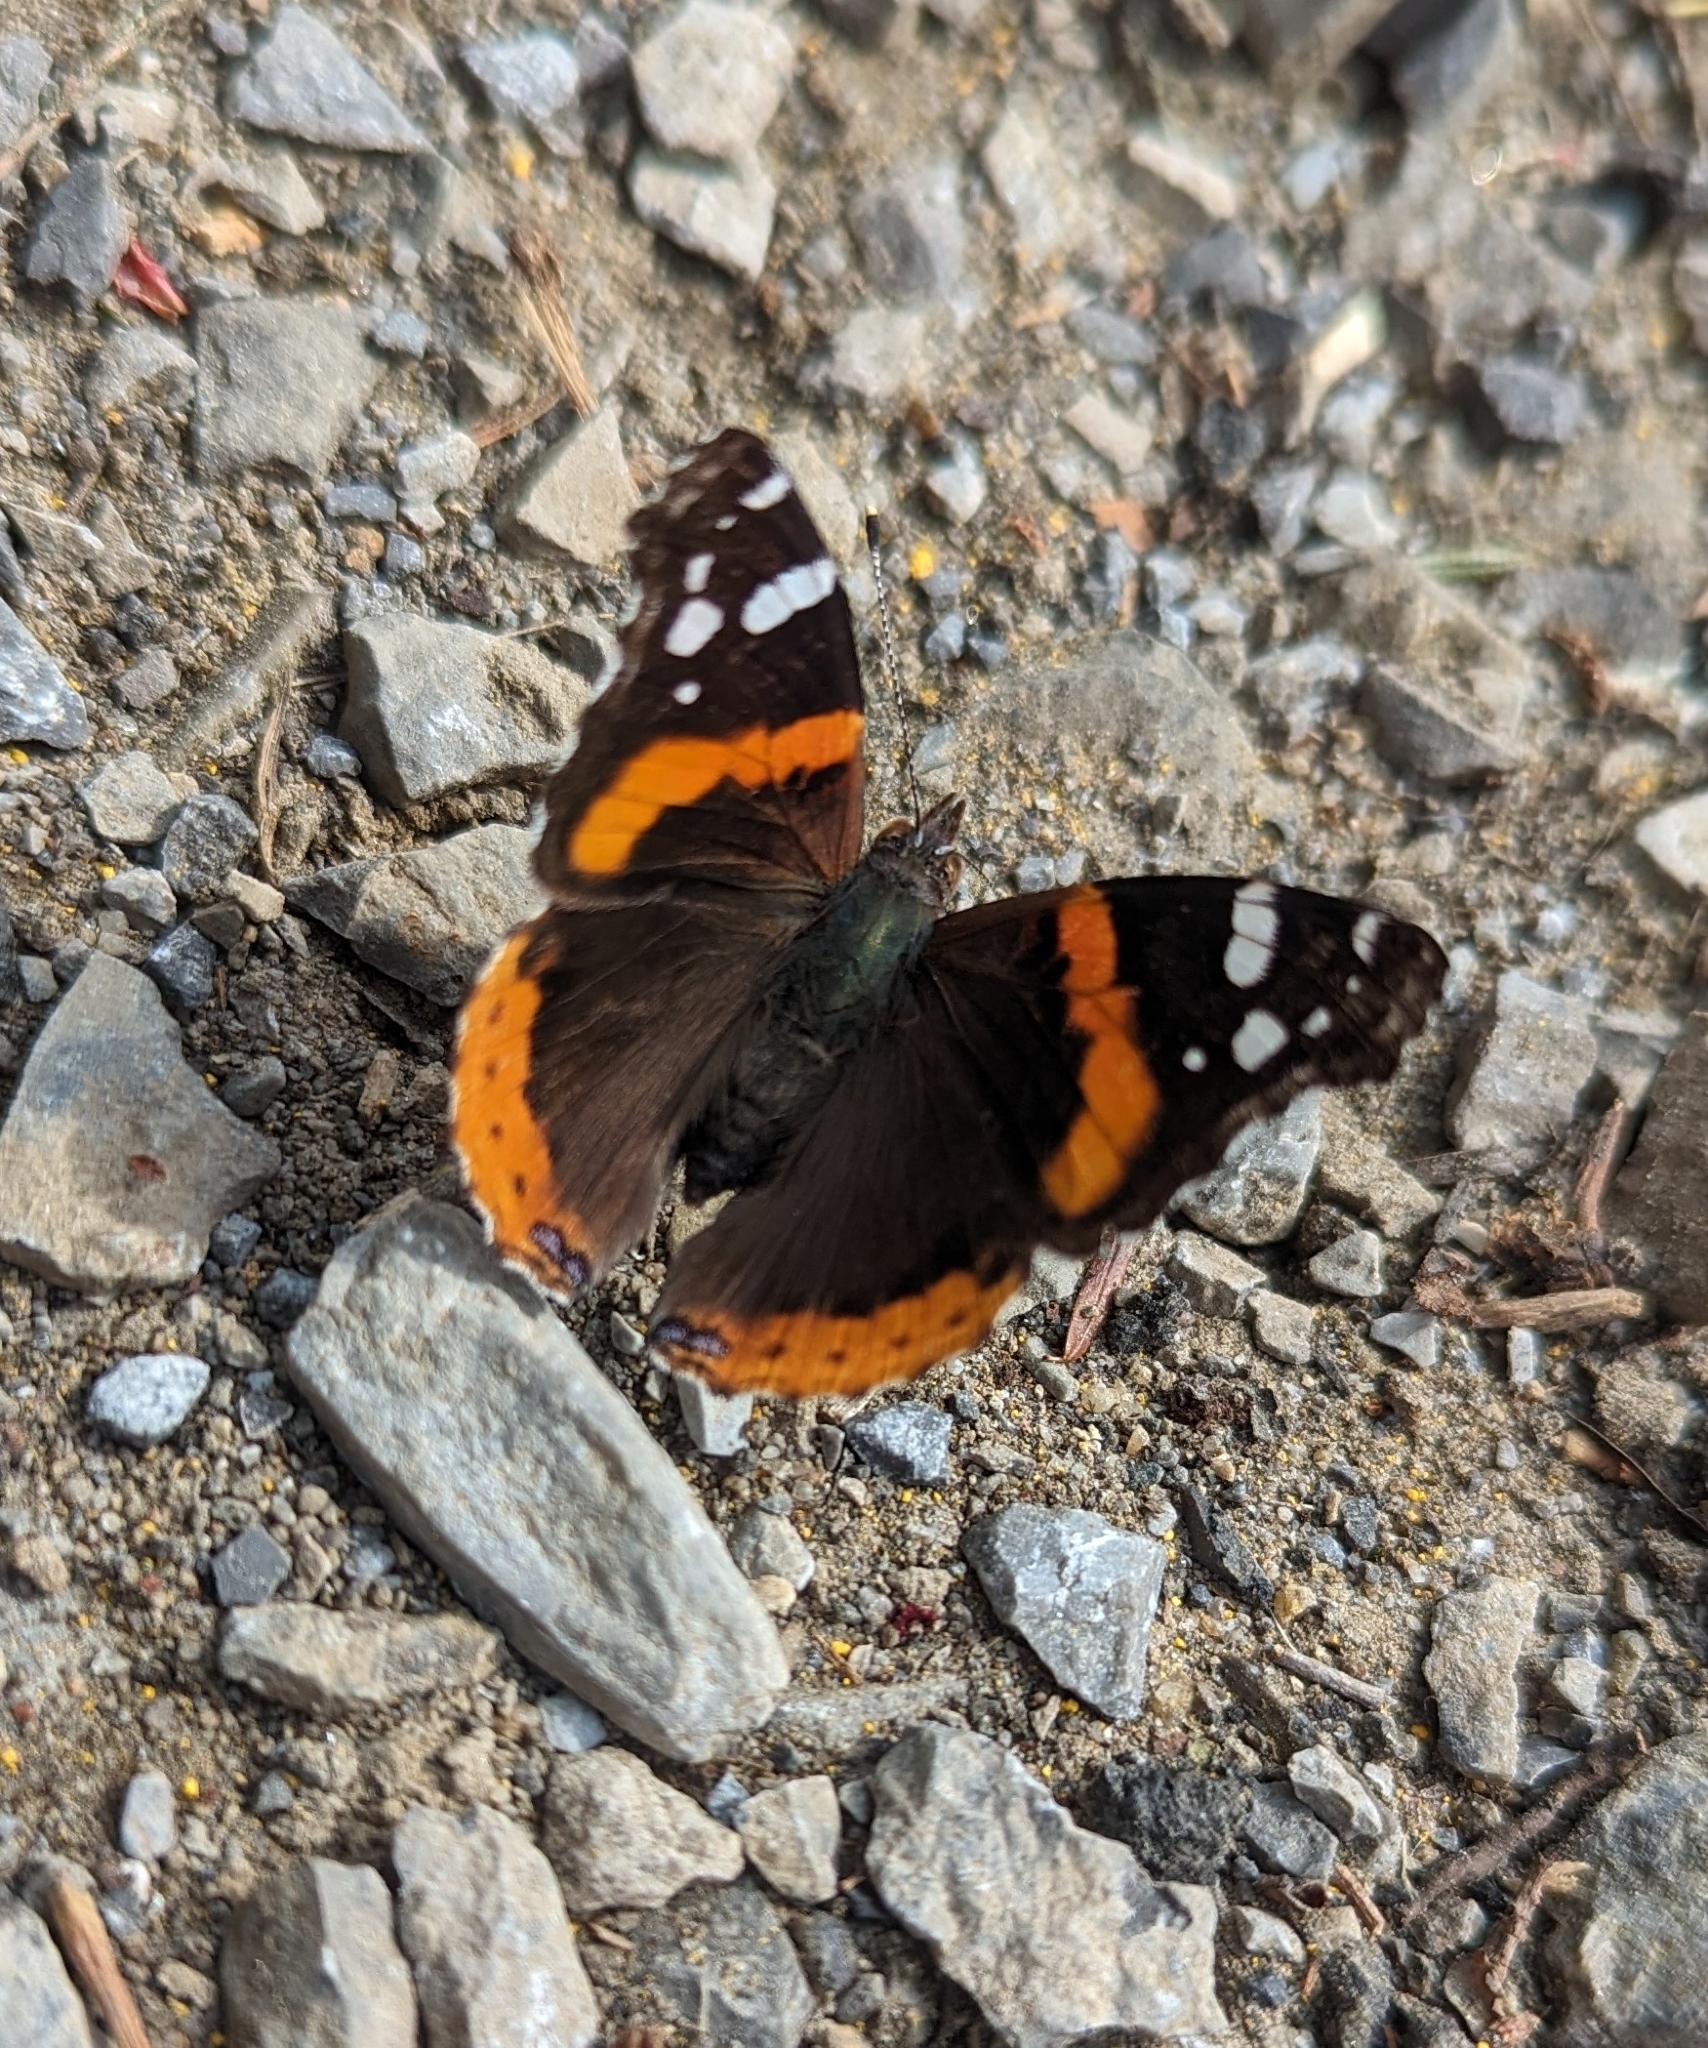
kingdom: Animalia
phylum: Arthropoda
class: Insecta
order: Lepidoptera
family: Nymphalidae
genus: Vanessa
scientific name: Vanessa atalanta
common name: Red admiral
